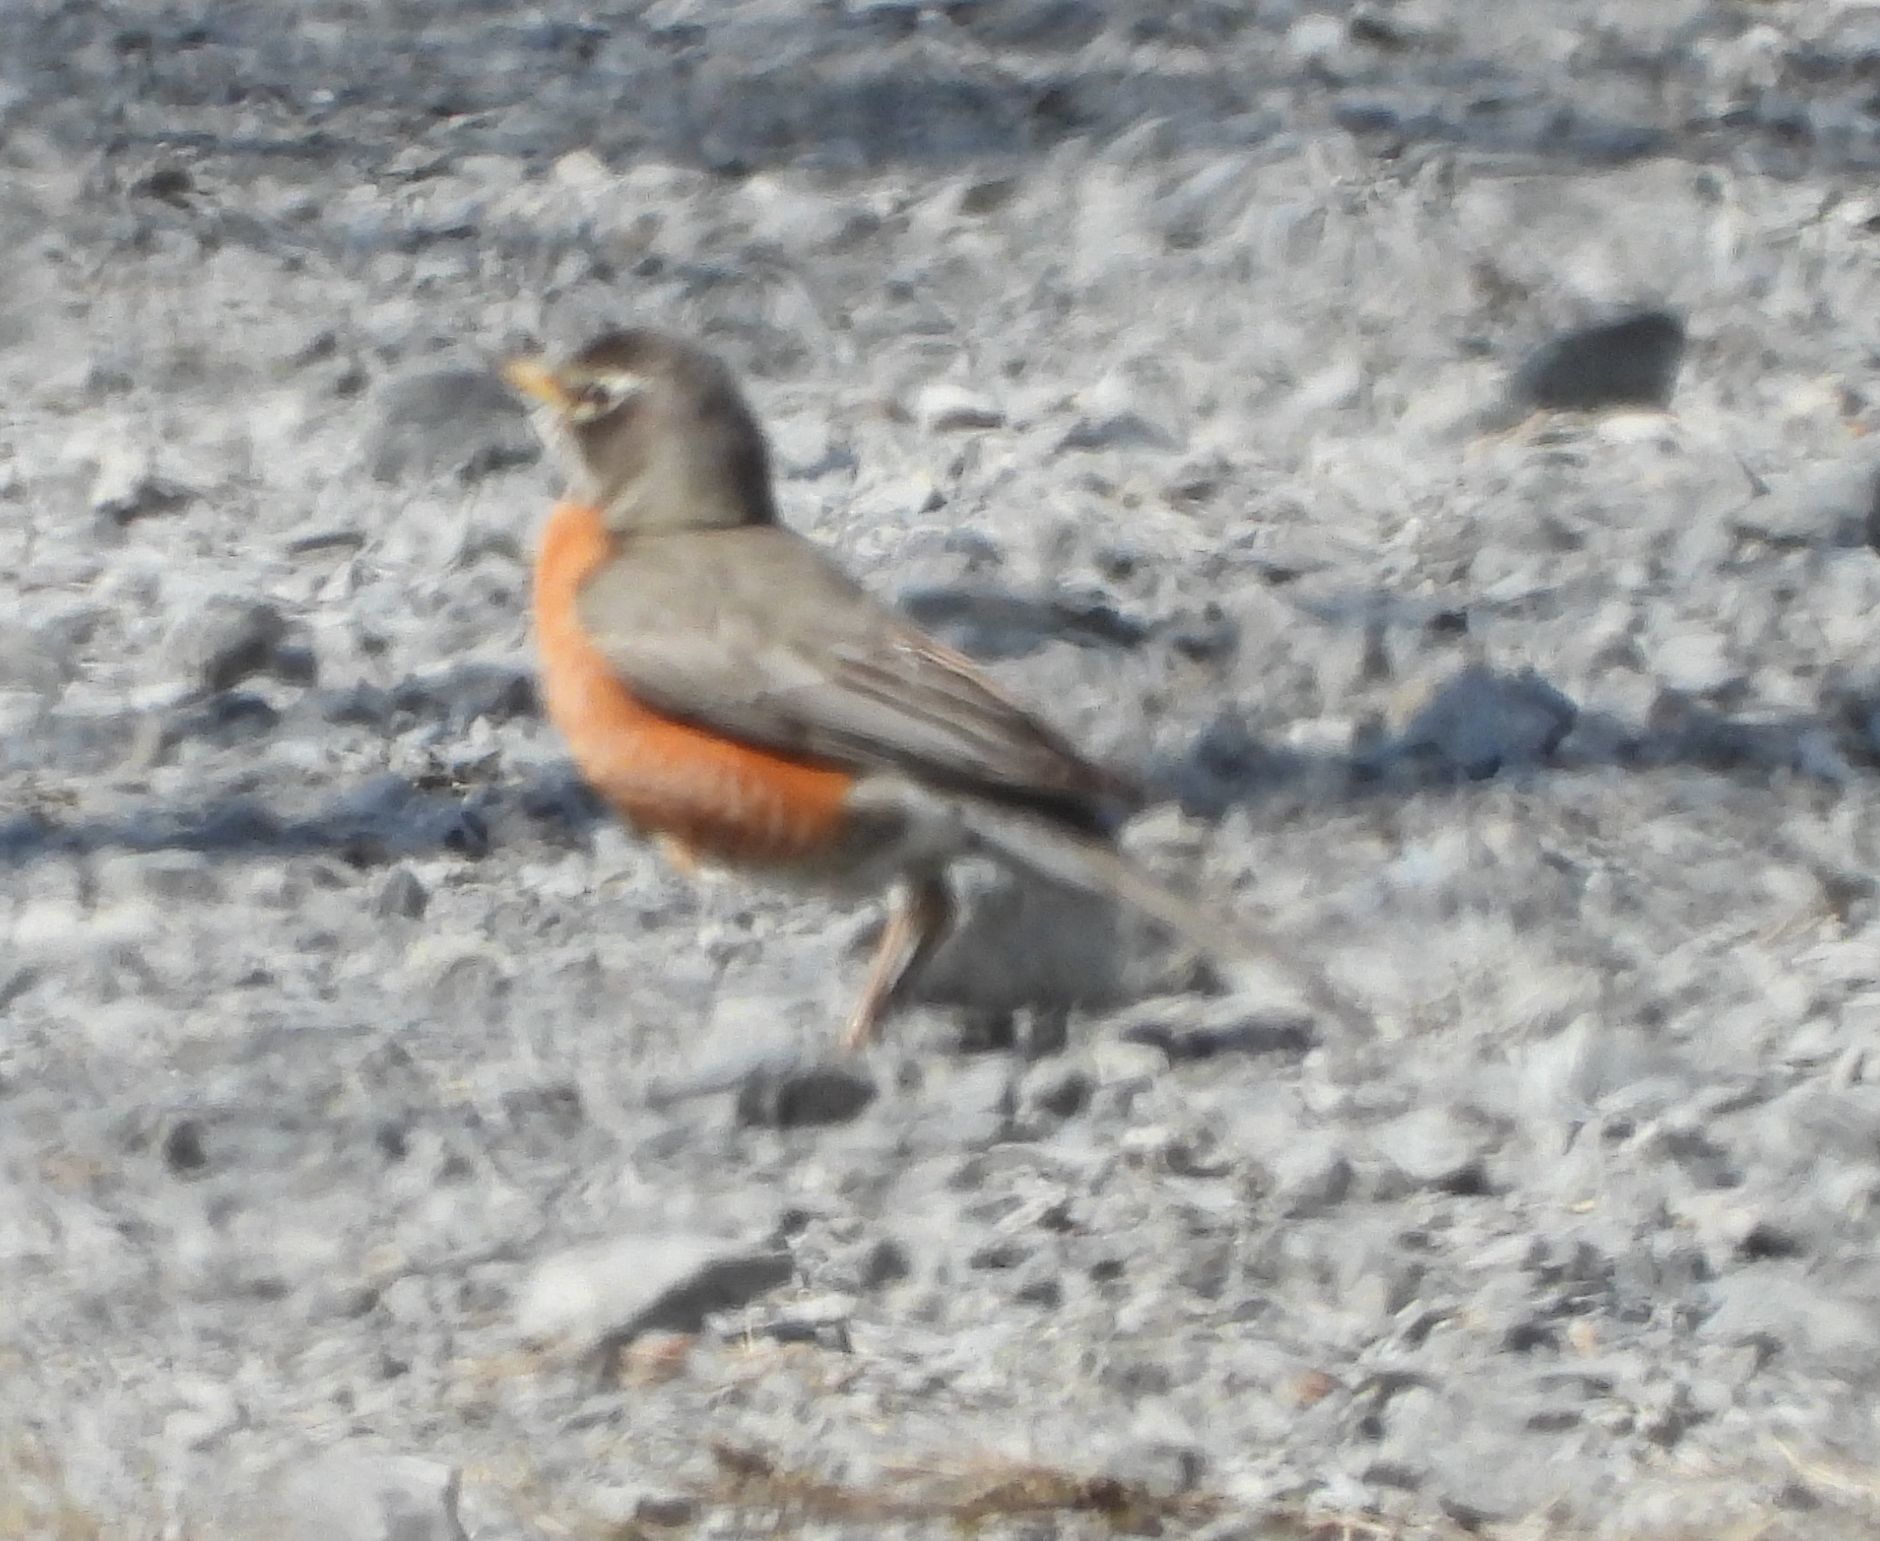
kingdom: Animalia
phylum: Chordata
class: Aves
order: Passeriformes
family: Turdidae
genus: Turdus
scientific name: Turdus migratorius
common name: American robin
